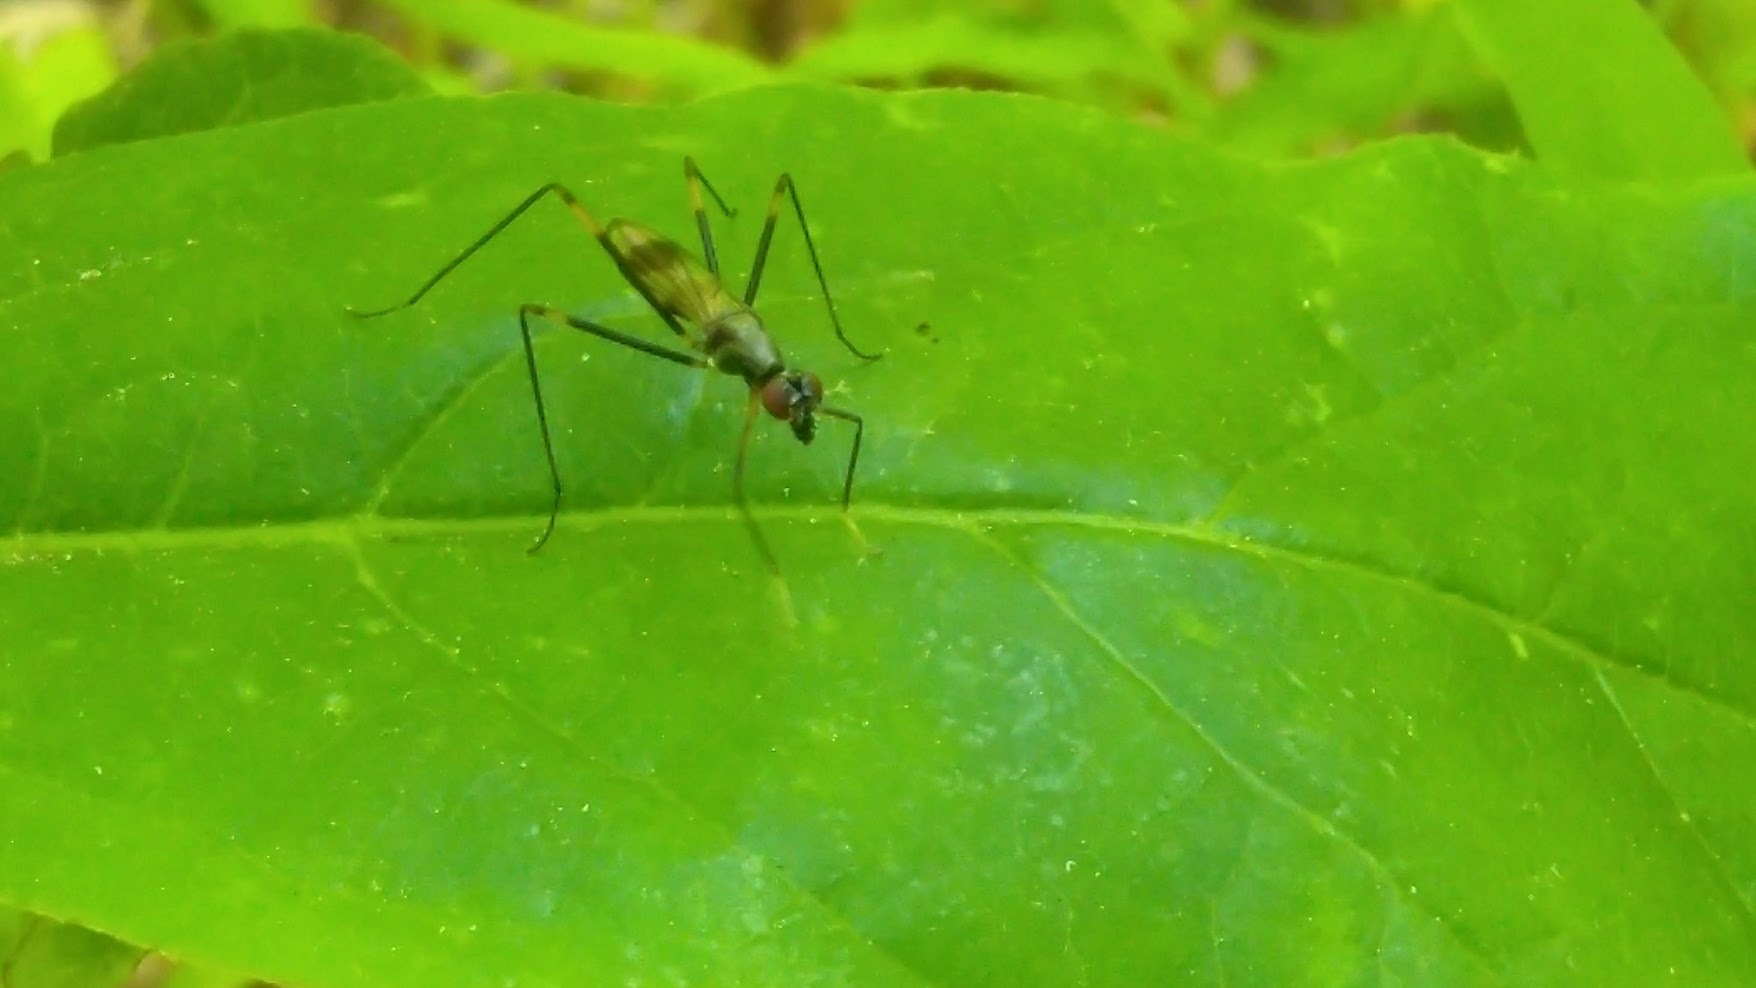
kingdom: Animalia
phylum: Arthropoda
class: Insecta
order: Diptera
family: Micropezidae
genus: Rainieria
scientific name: Rainieria antennaepes
